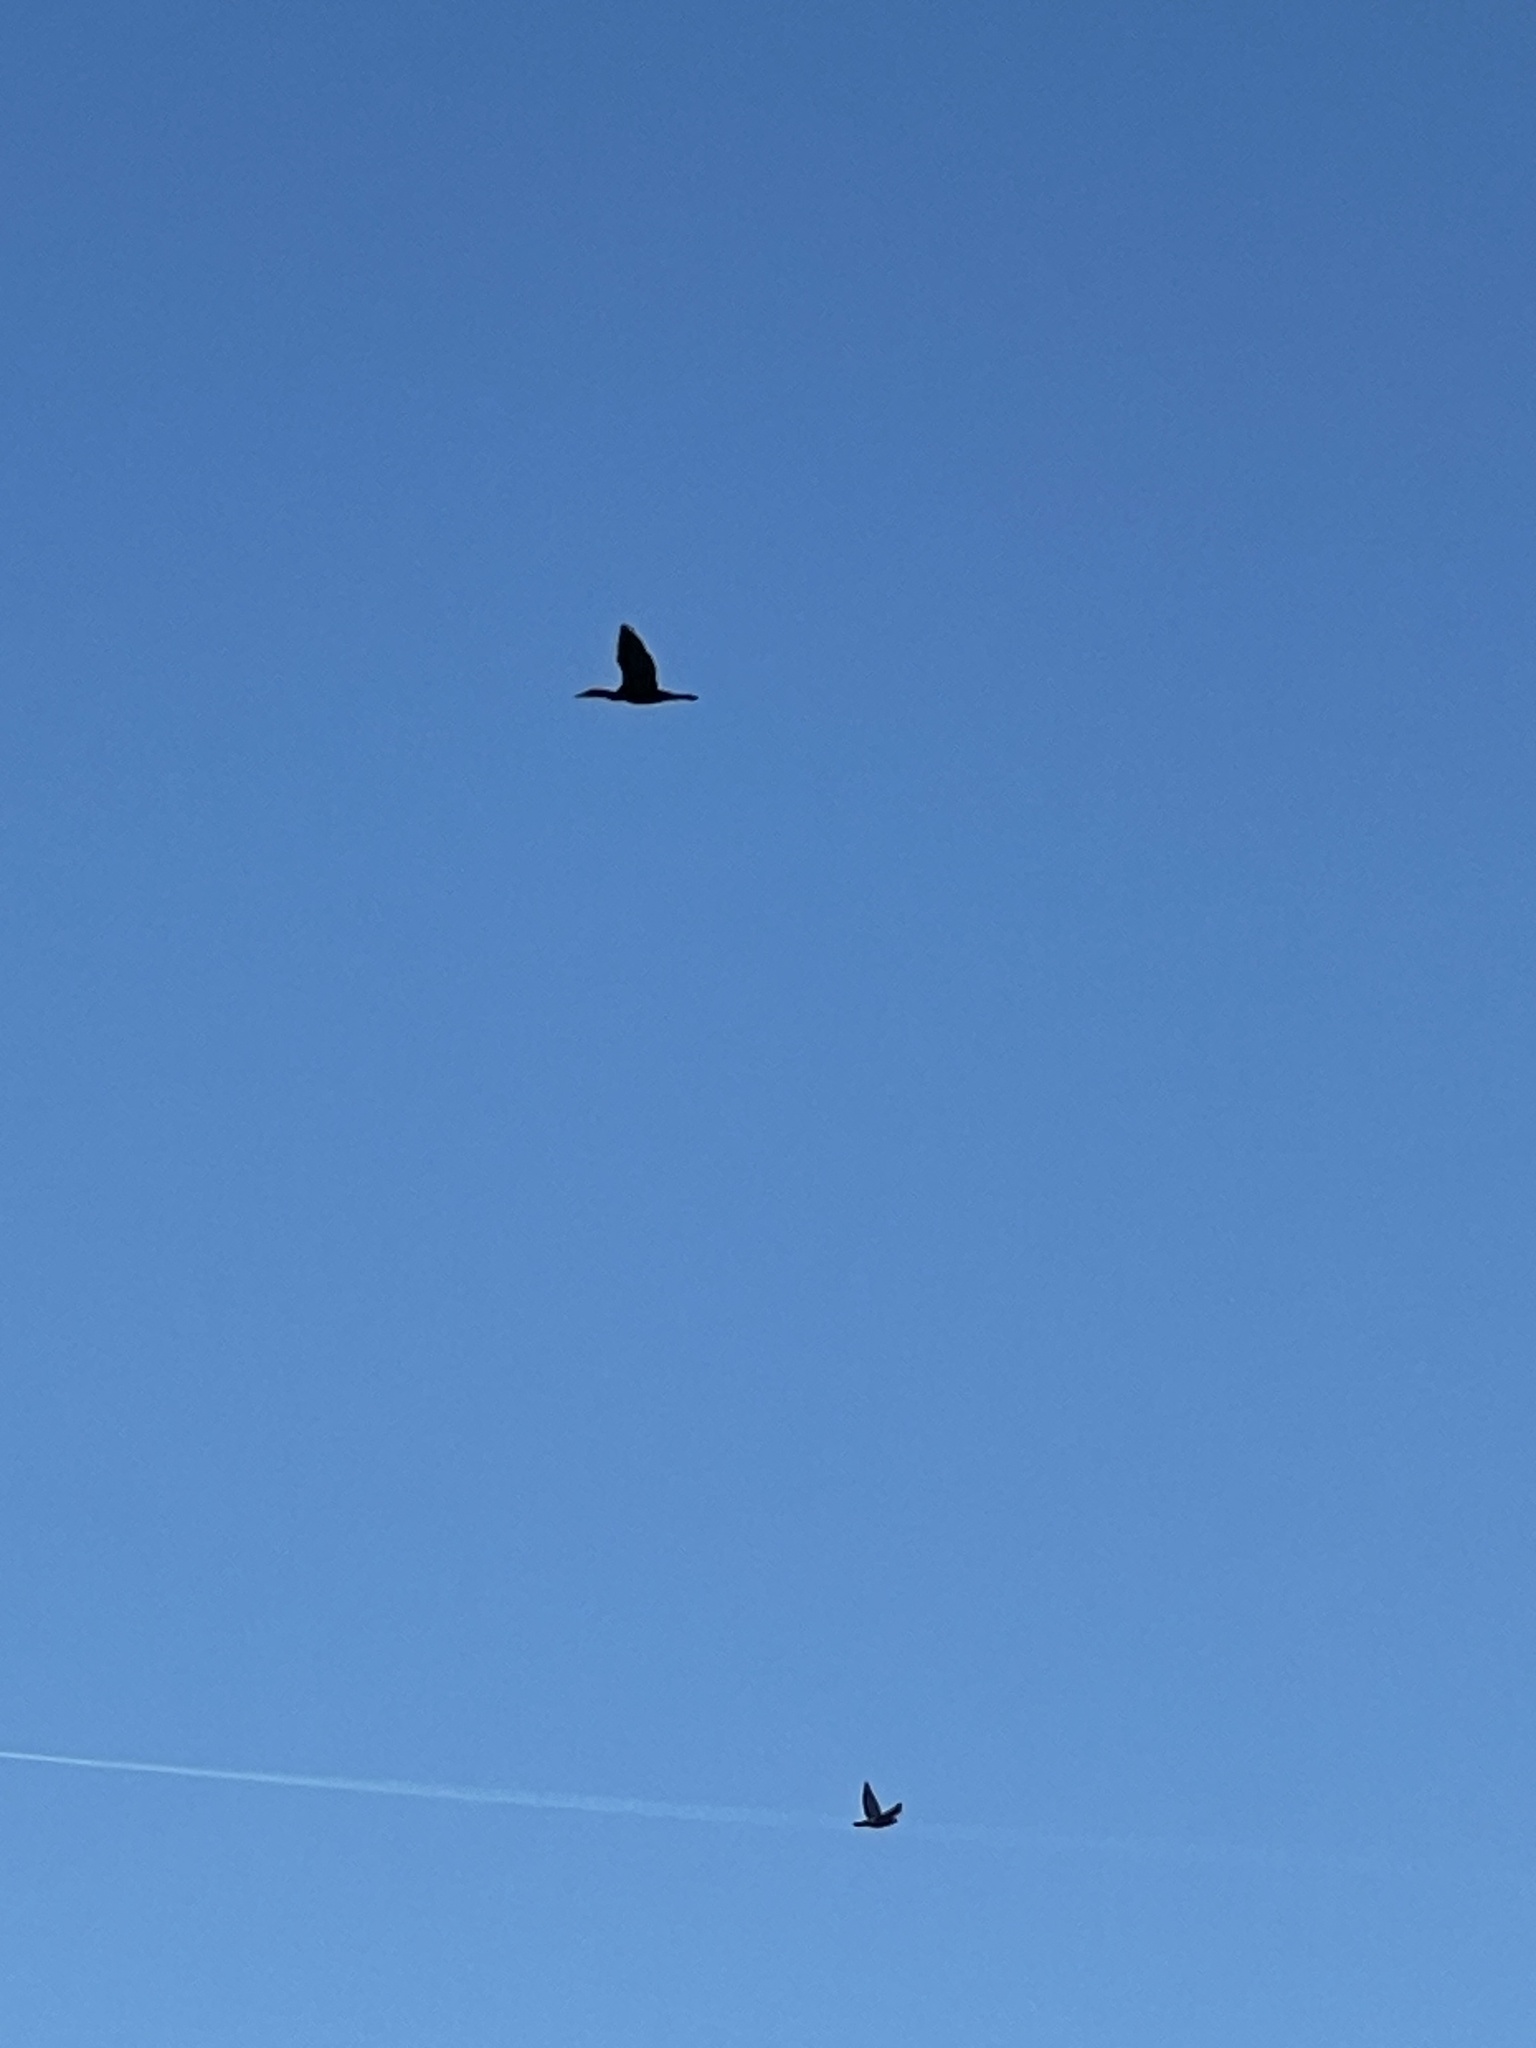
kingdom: Animalia
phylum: Chordata
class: Aves
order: Suliformes
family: Phalacrocoracidae
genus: Phalacrocorax
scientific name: Phalacrocorax carbo
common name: Great cormorant
